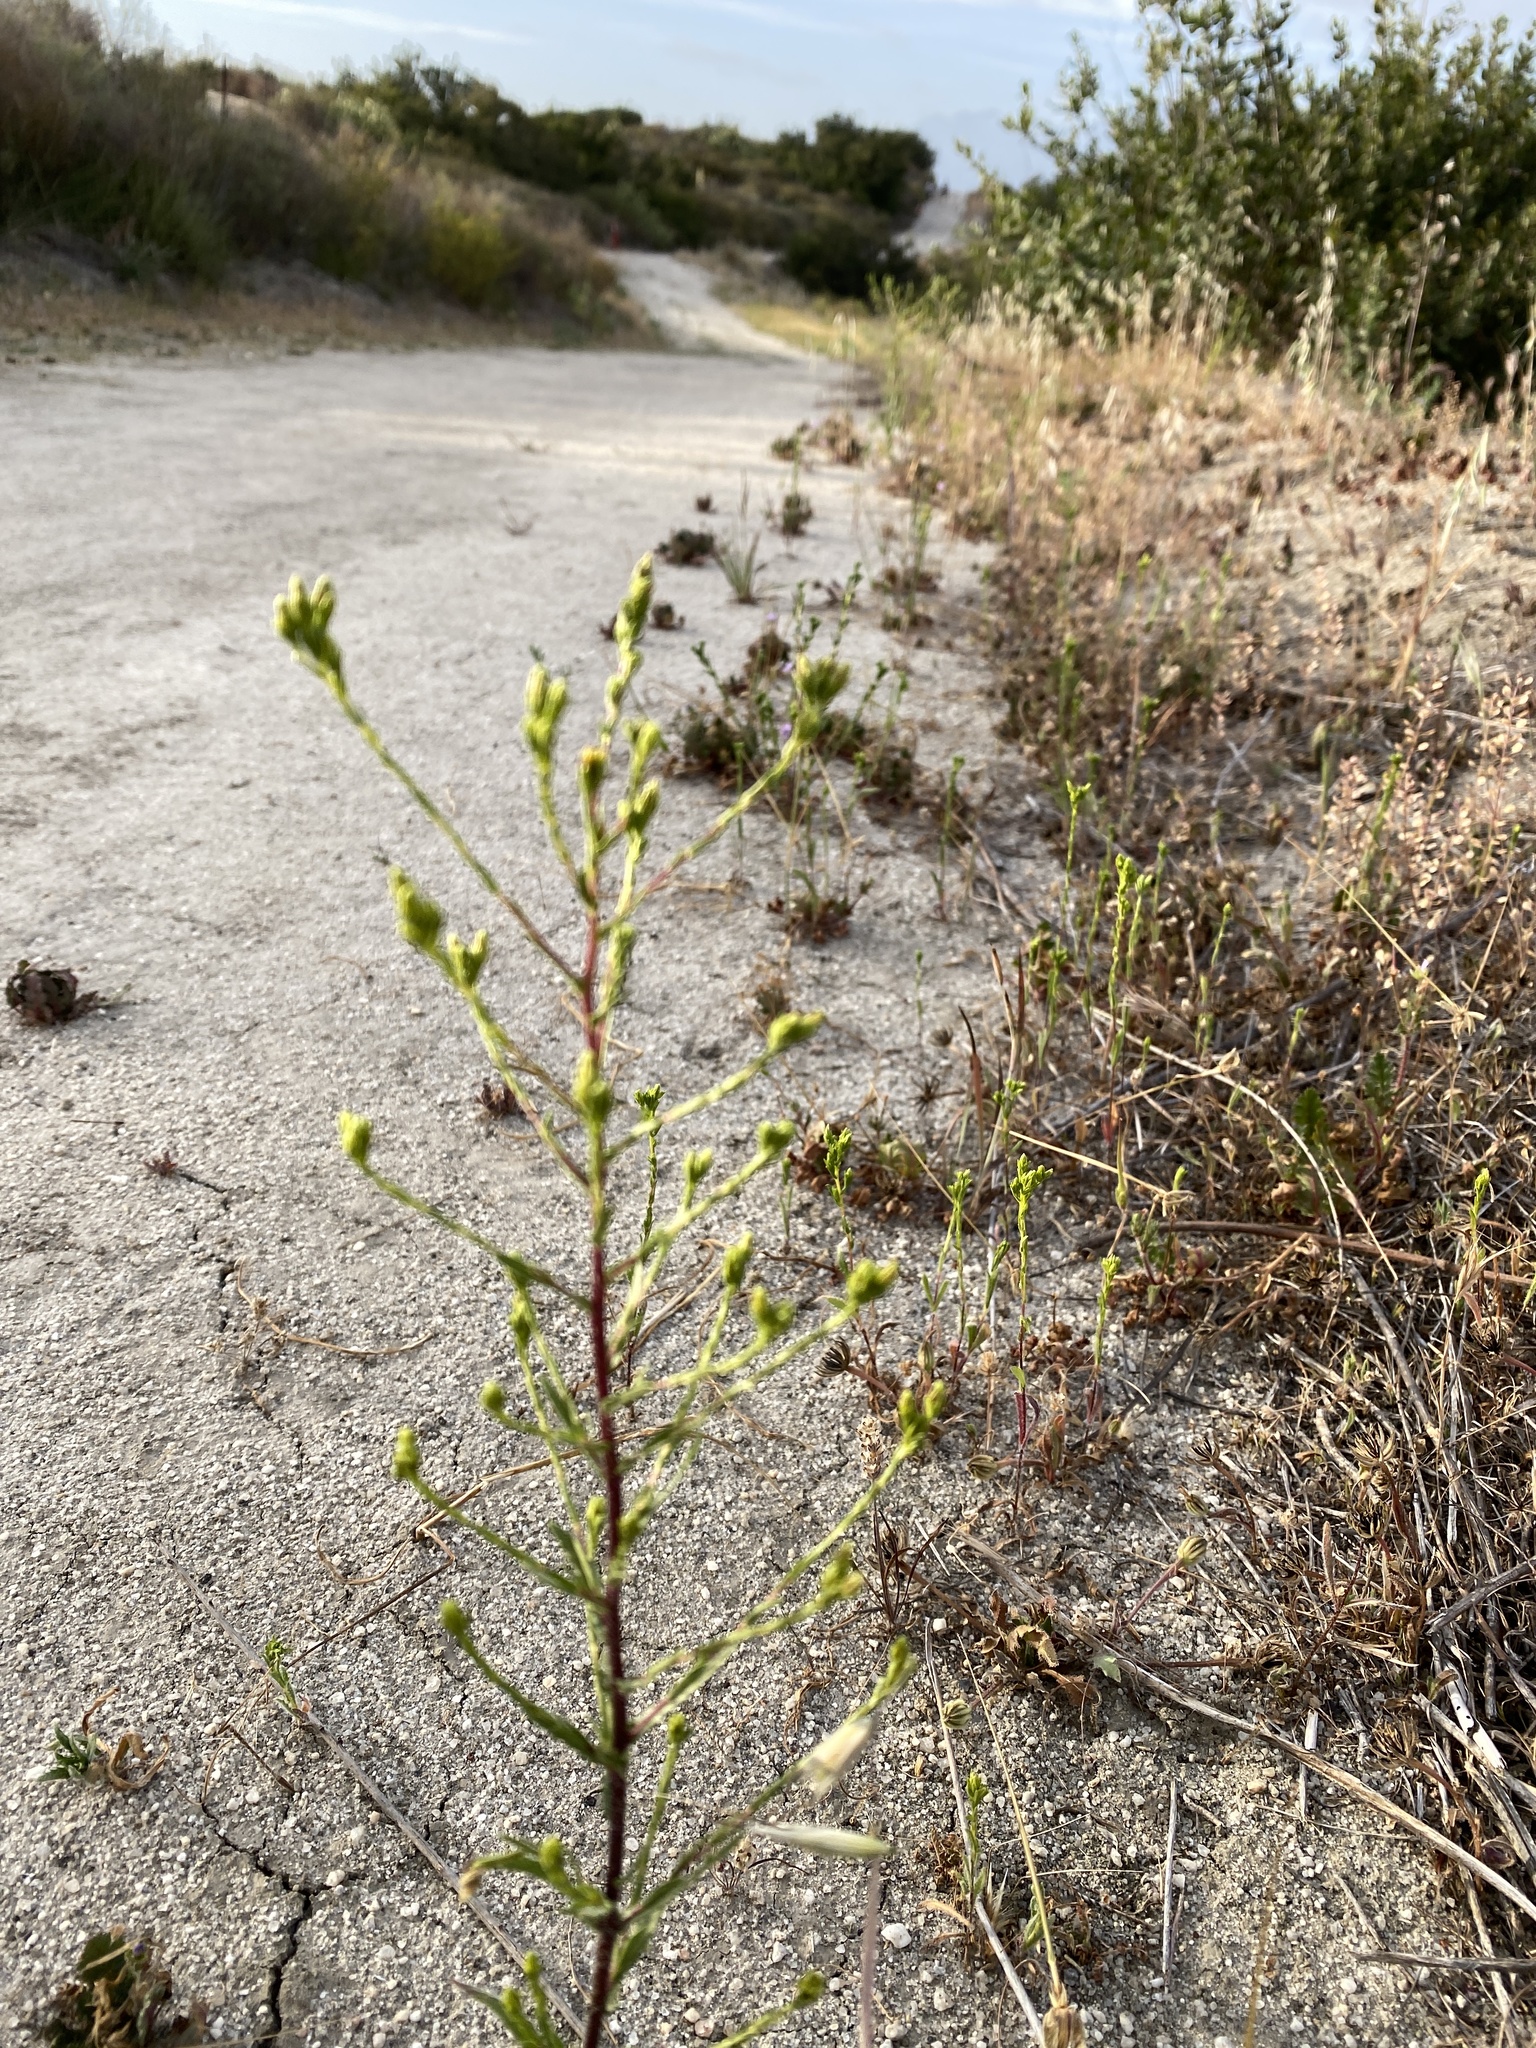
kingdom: Plantae
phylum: Tracheophyta
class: Magnoliopsida
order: Asterales
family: Asteraceae
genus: Deinandra
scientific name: Deinandra fasciculata
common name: Clustered tarweed
